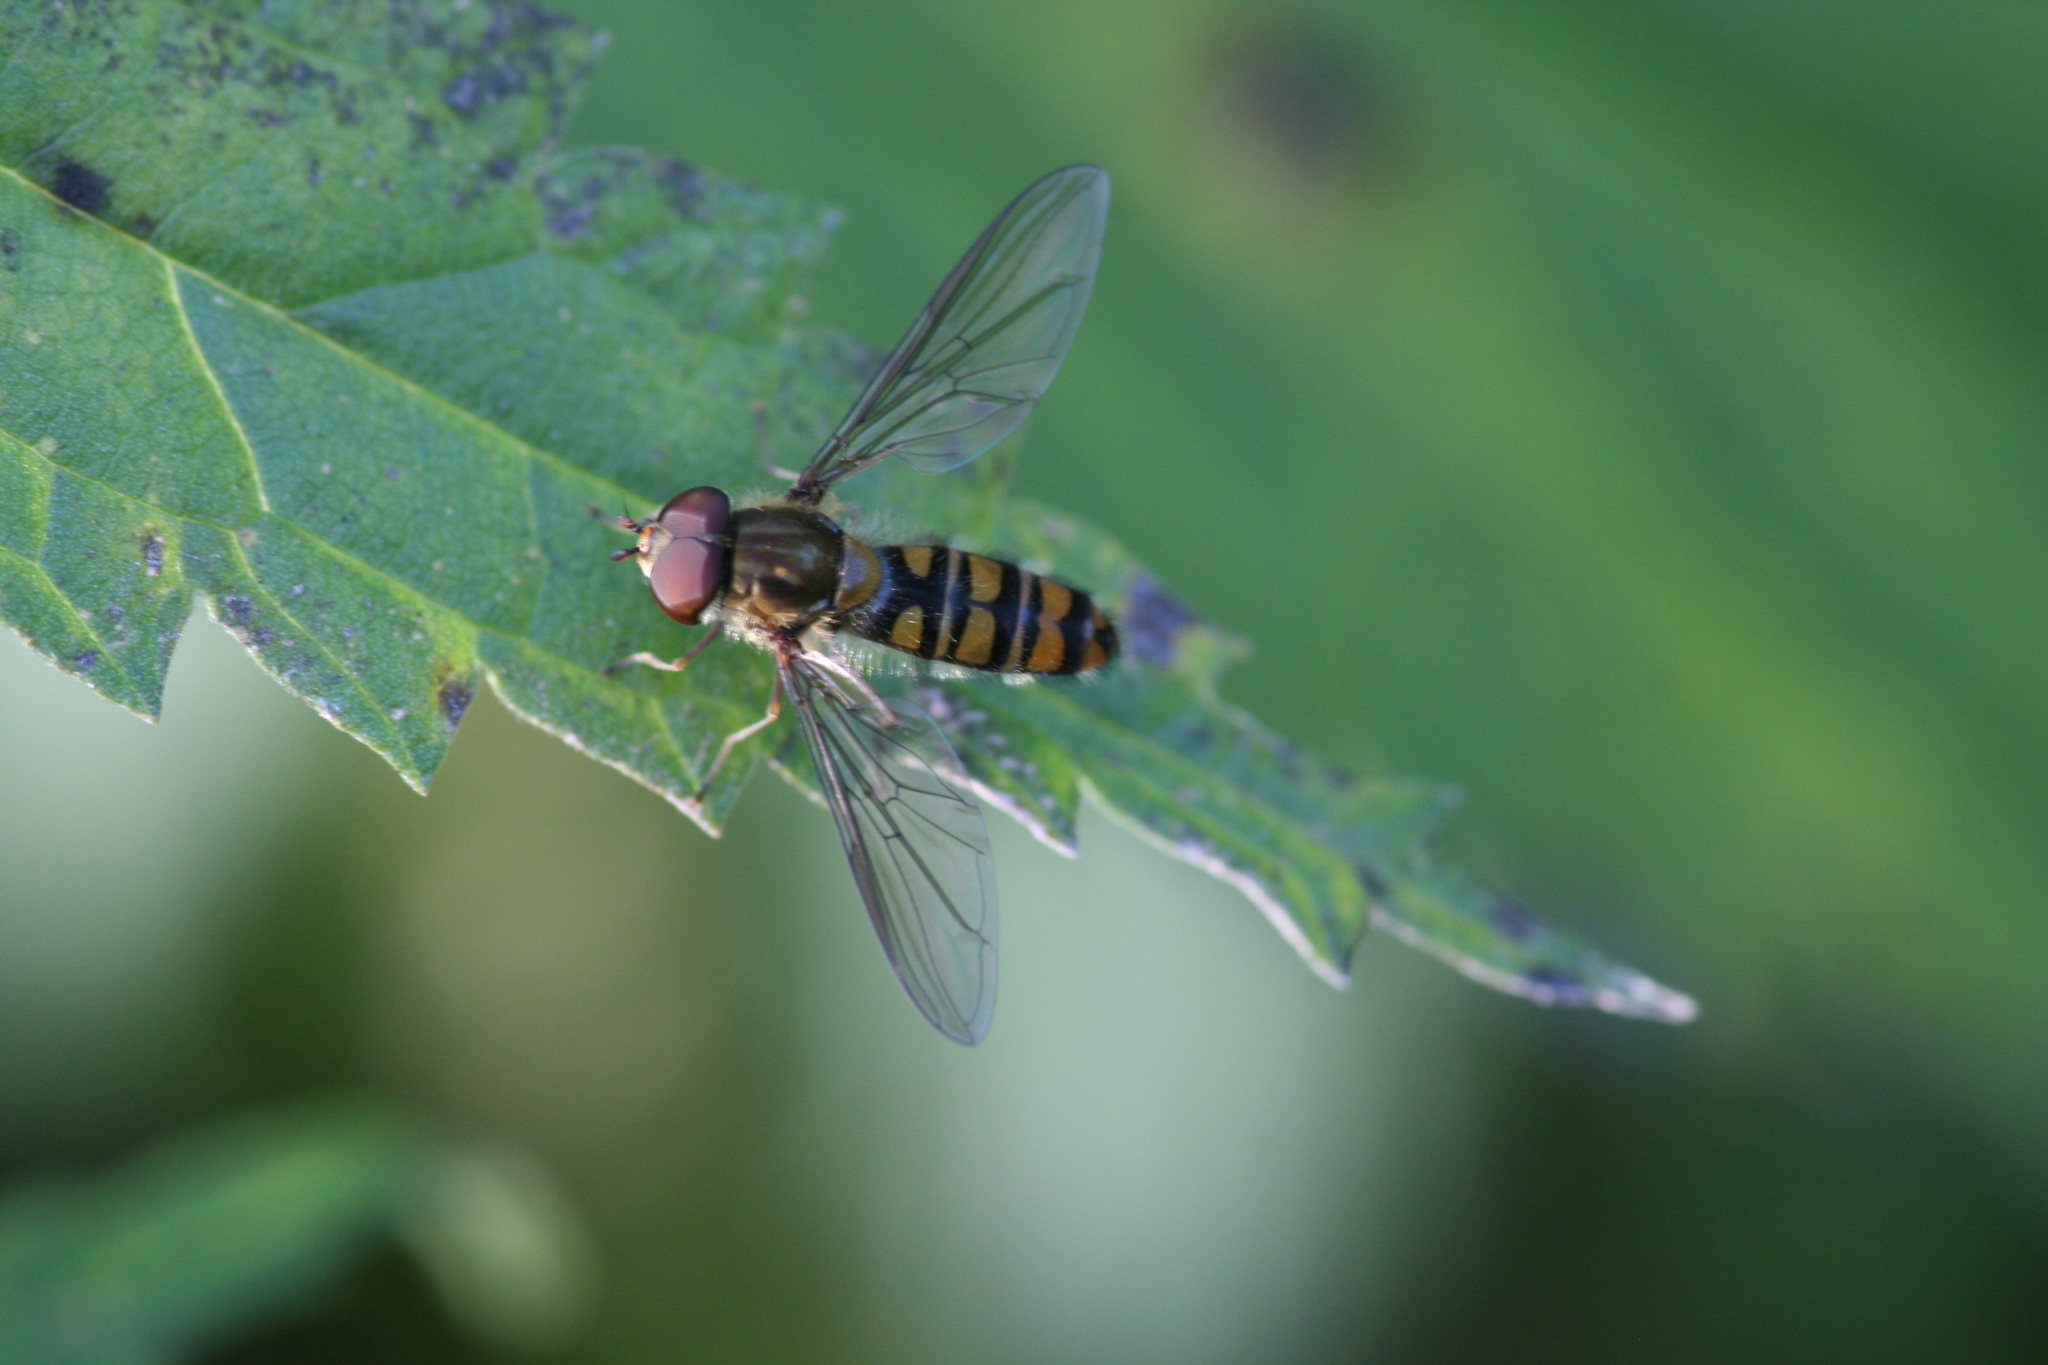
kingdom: Animalia
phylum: Arthropoda
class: Insecta
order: Diptera
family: Syrphidae
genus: Episyrphus
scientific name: Episyrphus balteatus
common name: Marmalade hoverfly
